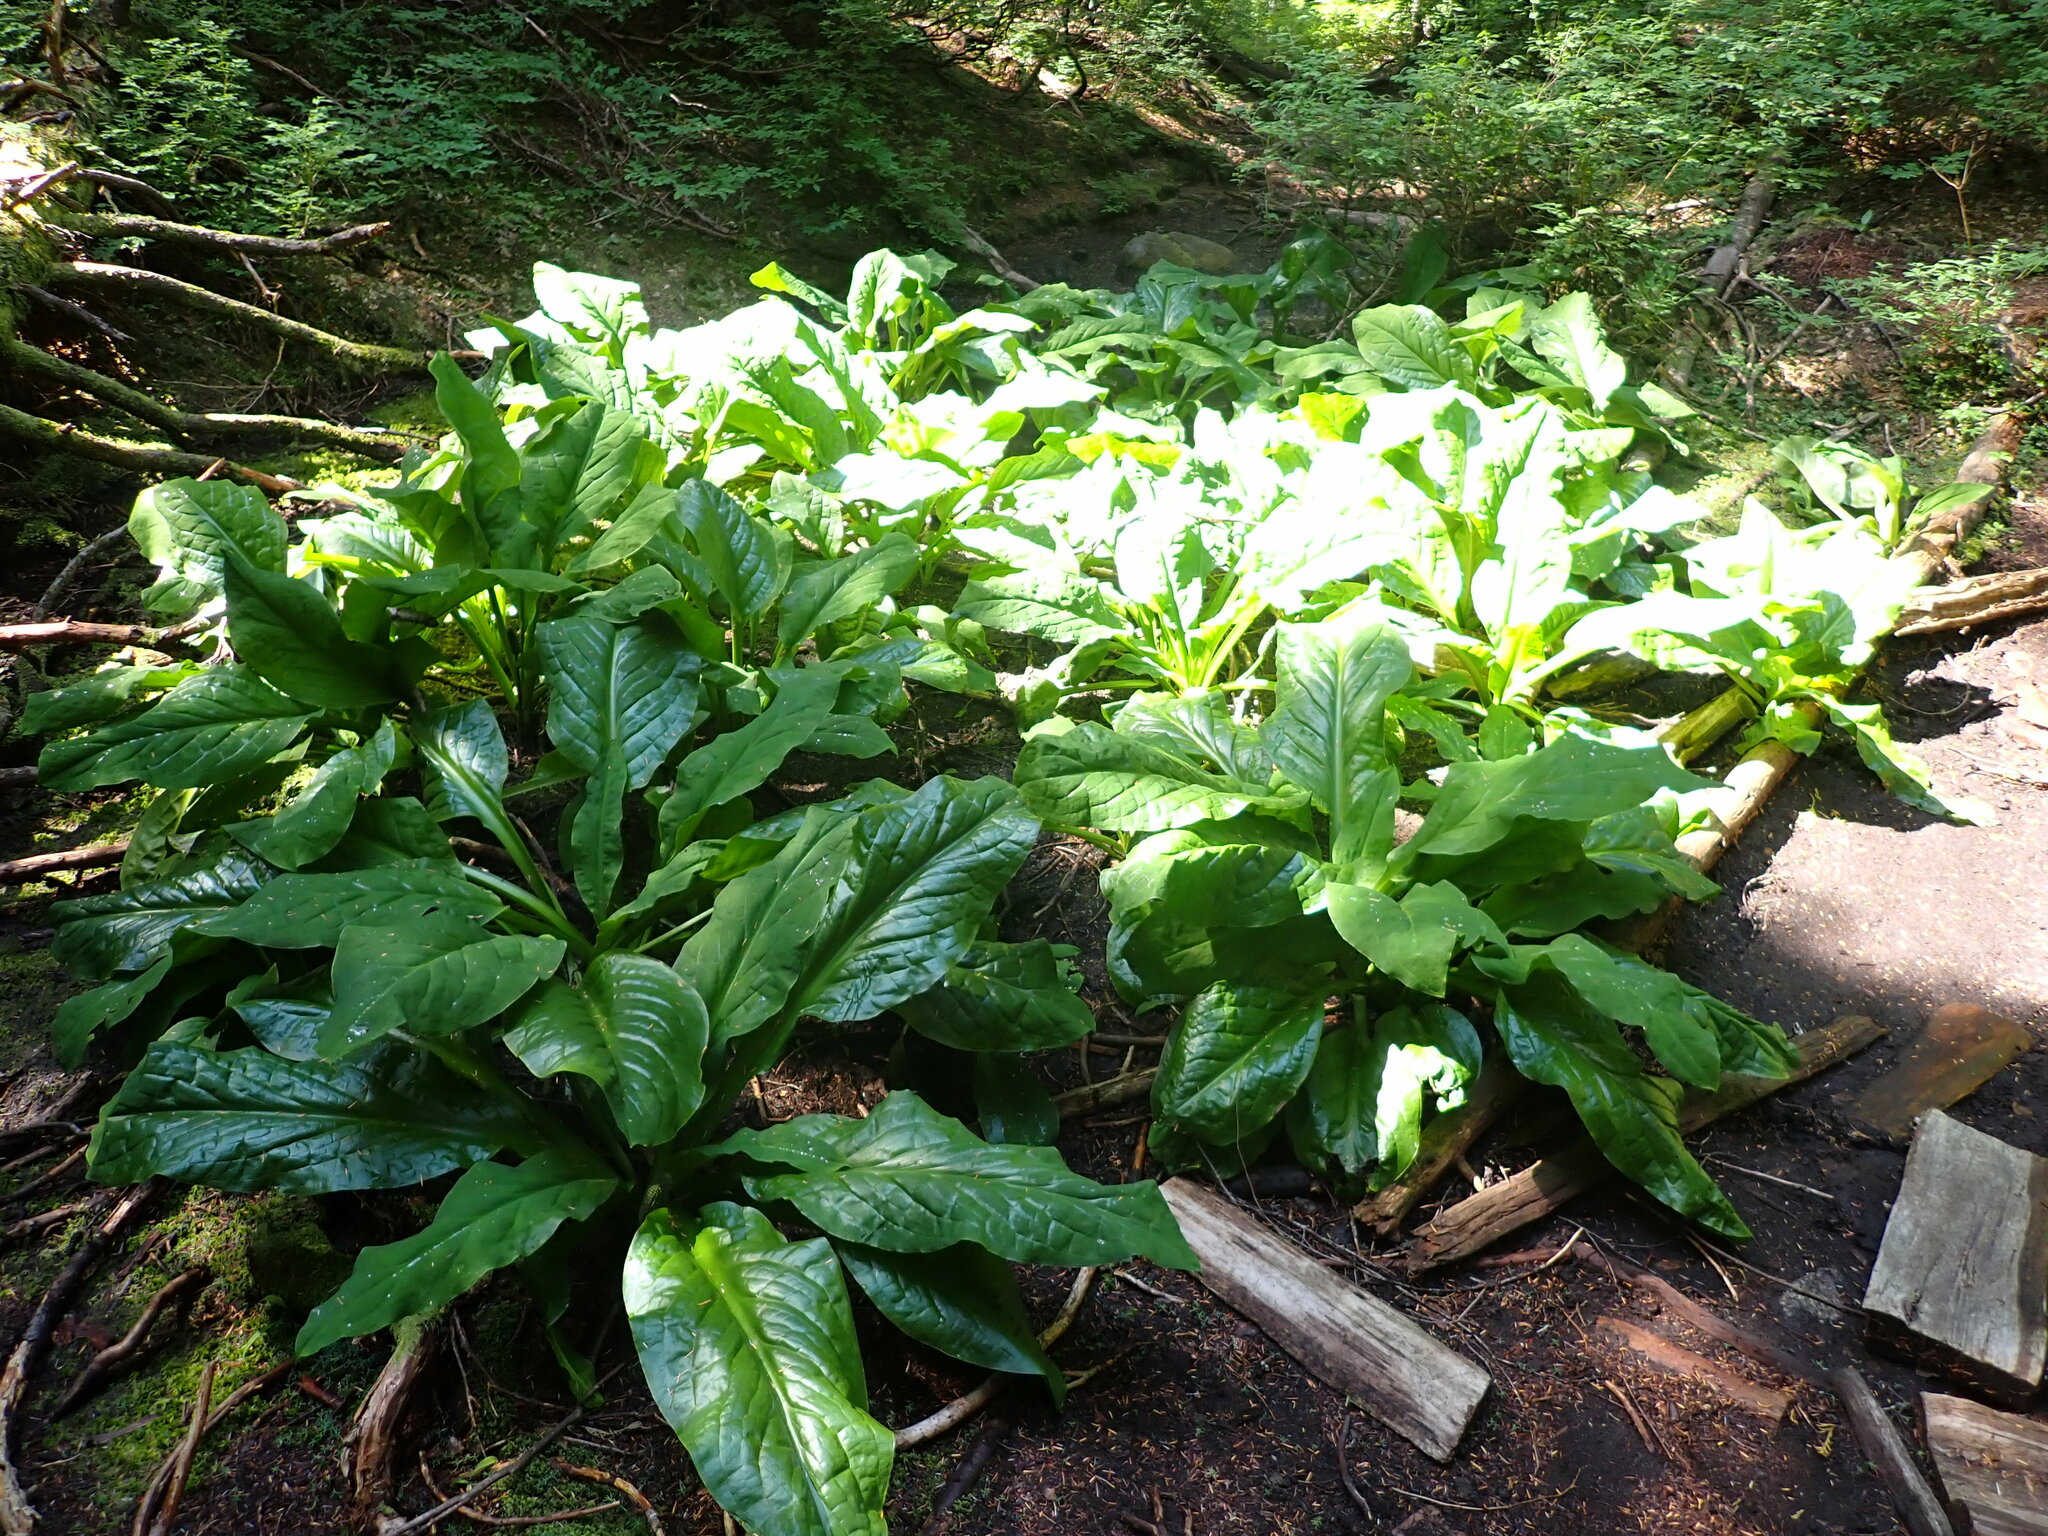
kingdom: Plantae
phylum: Tracheophyta
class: Liliopsida
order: Alismatales
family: Araceae
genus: Lysichiton
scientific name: Lysichiton americanus
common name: American skunk cabbage
